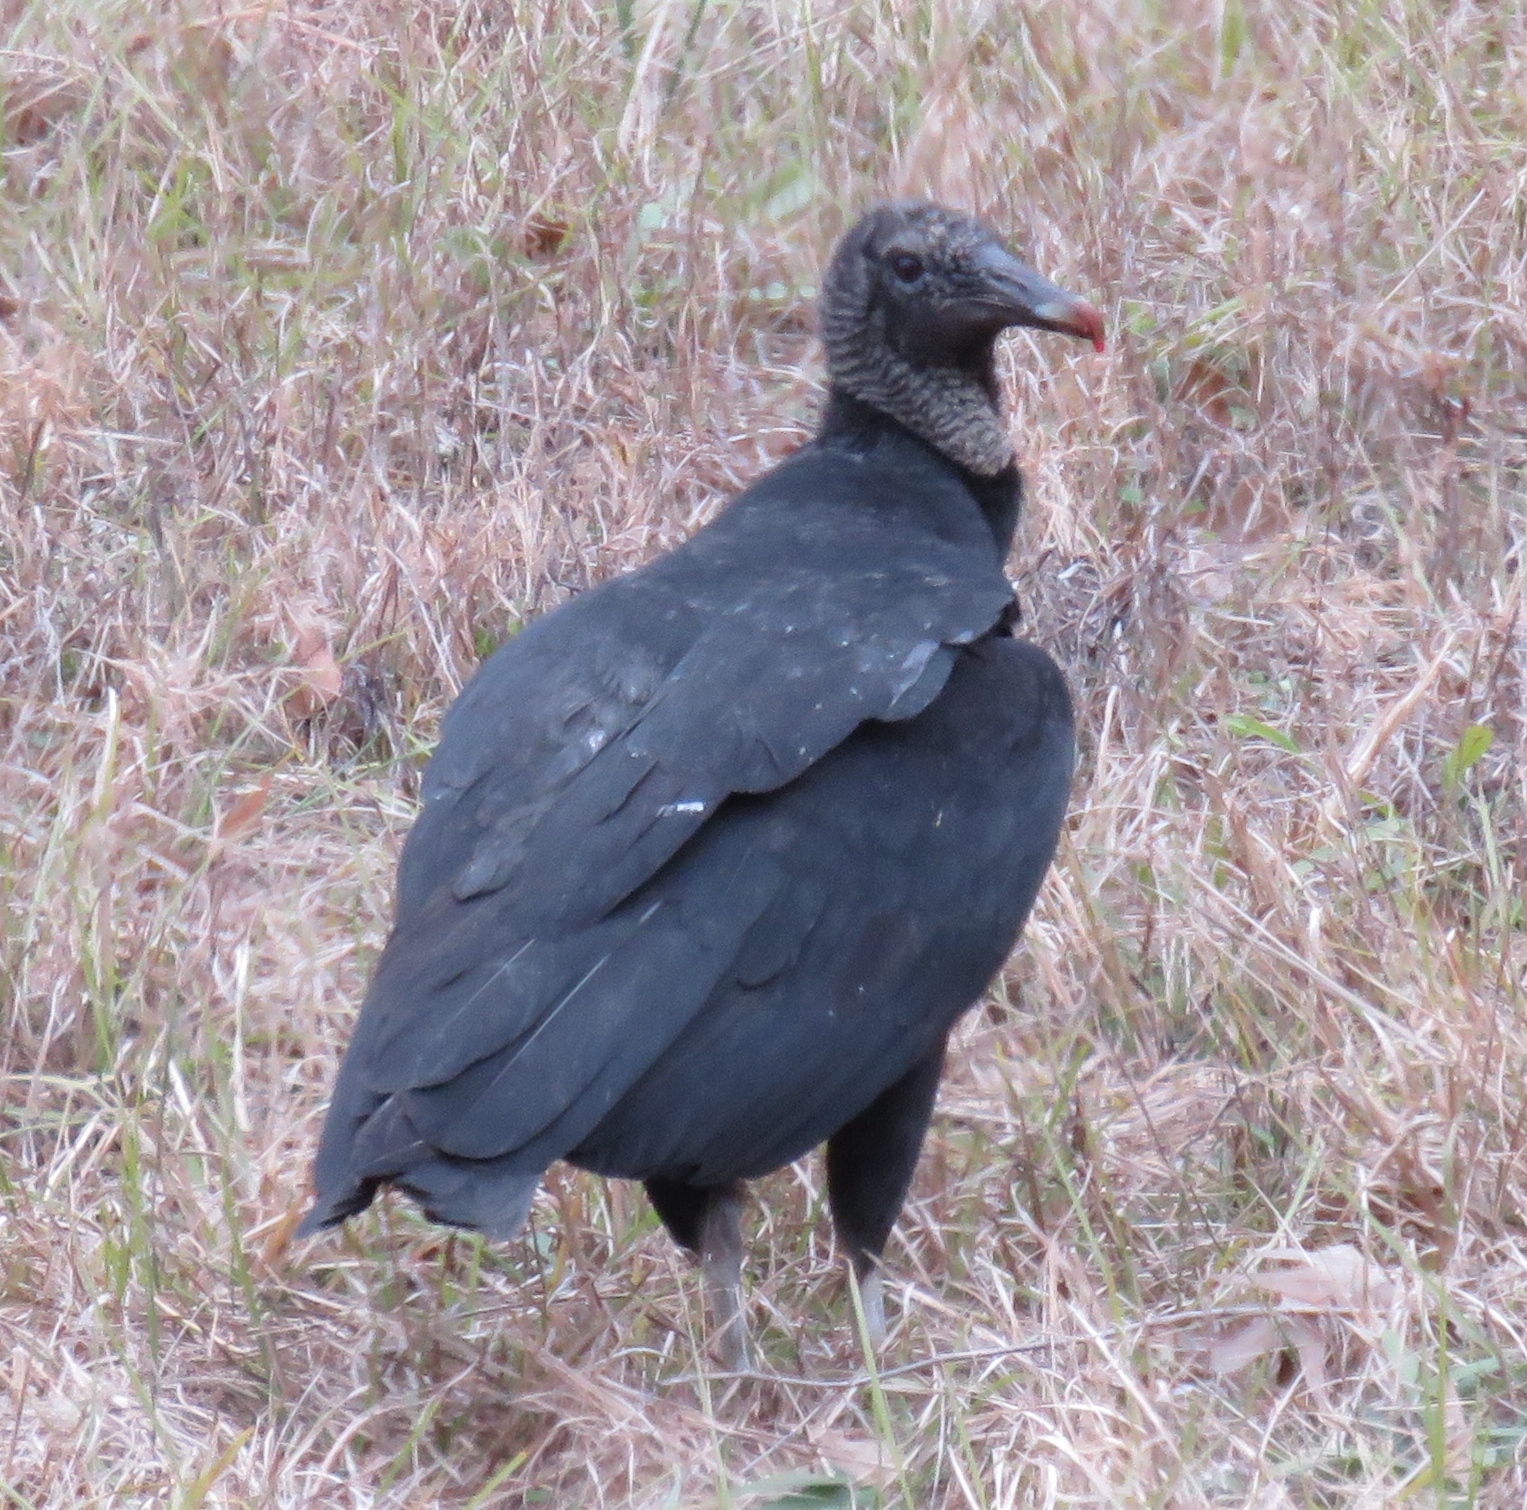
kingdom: Animalia
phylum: Chordata
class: Aves
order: Accipitriformes
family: Cathartidae
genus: Coragyps
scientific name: Coragyps atratus
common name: Black vulture
